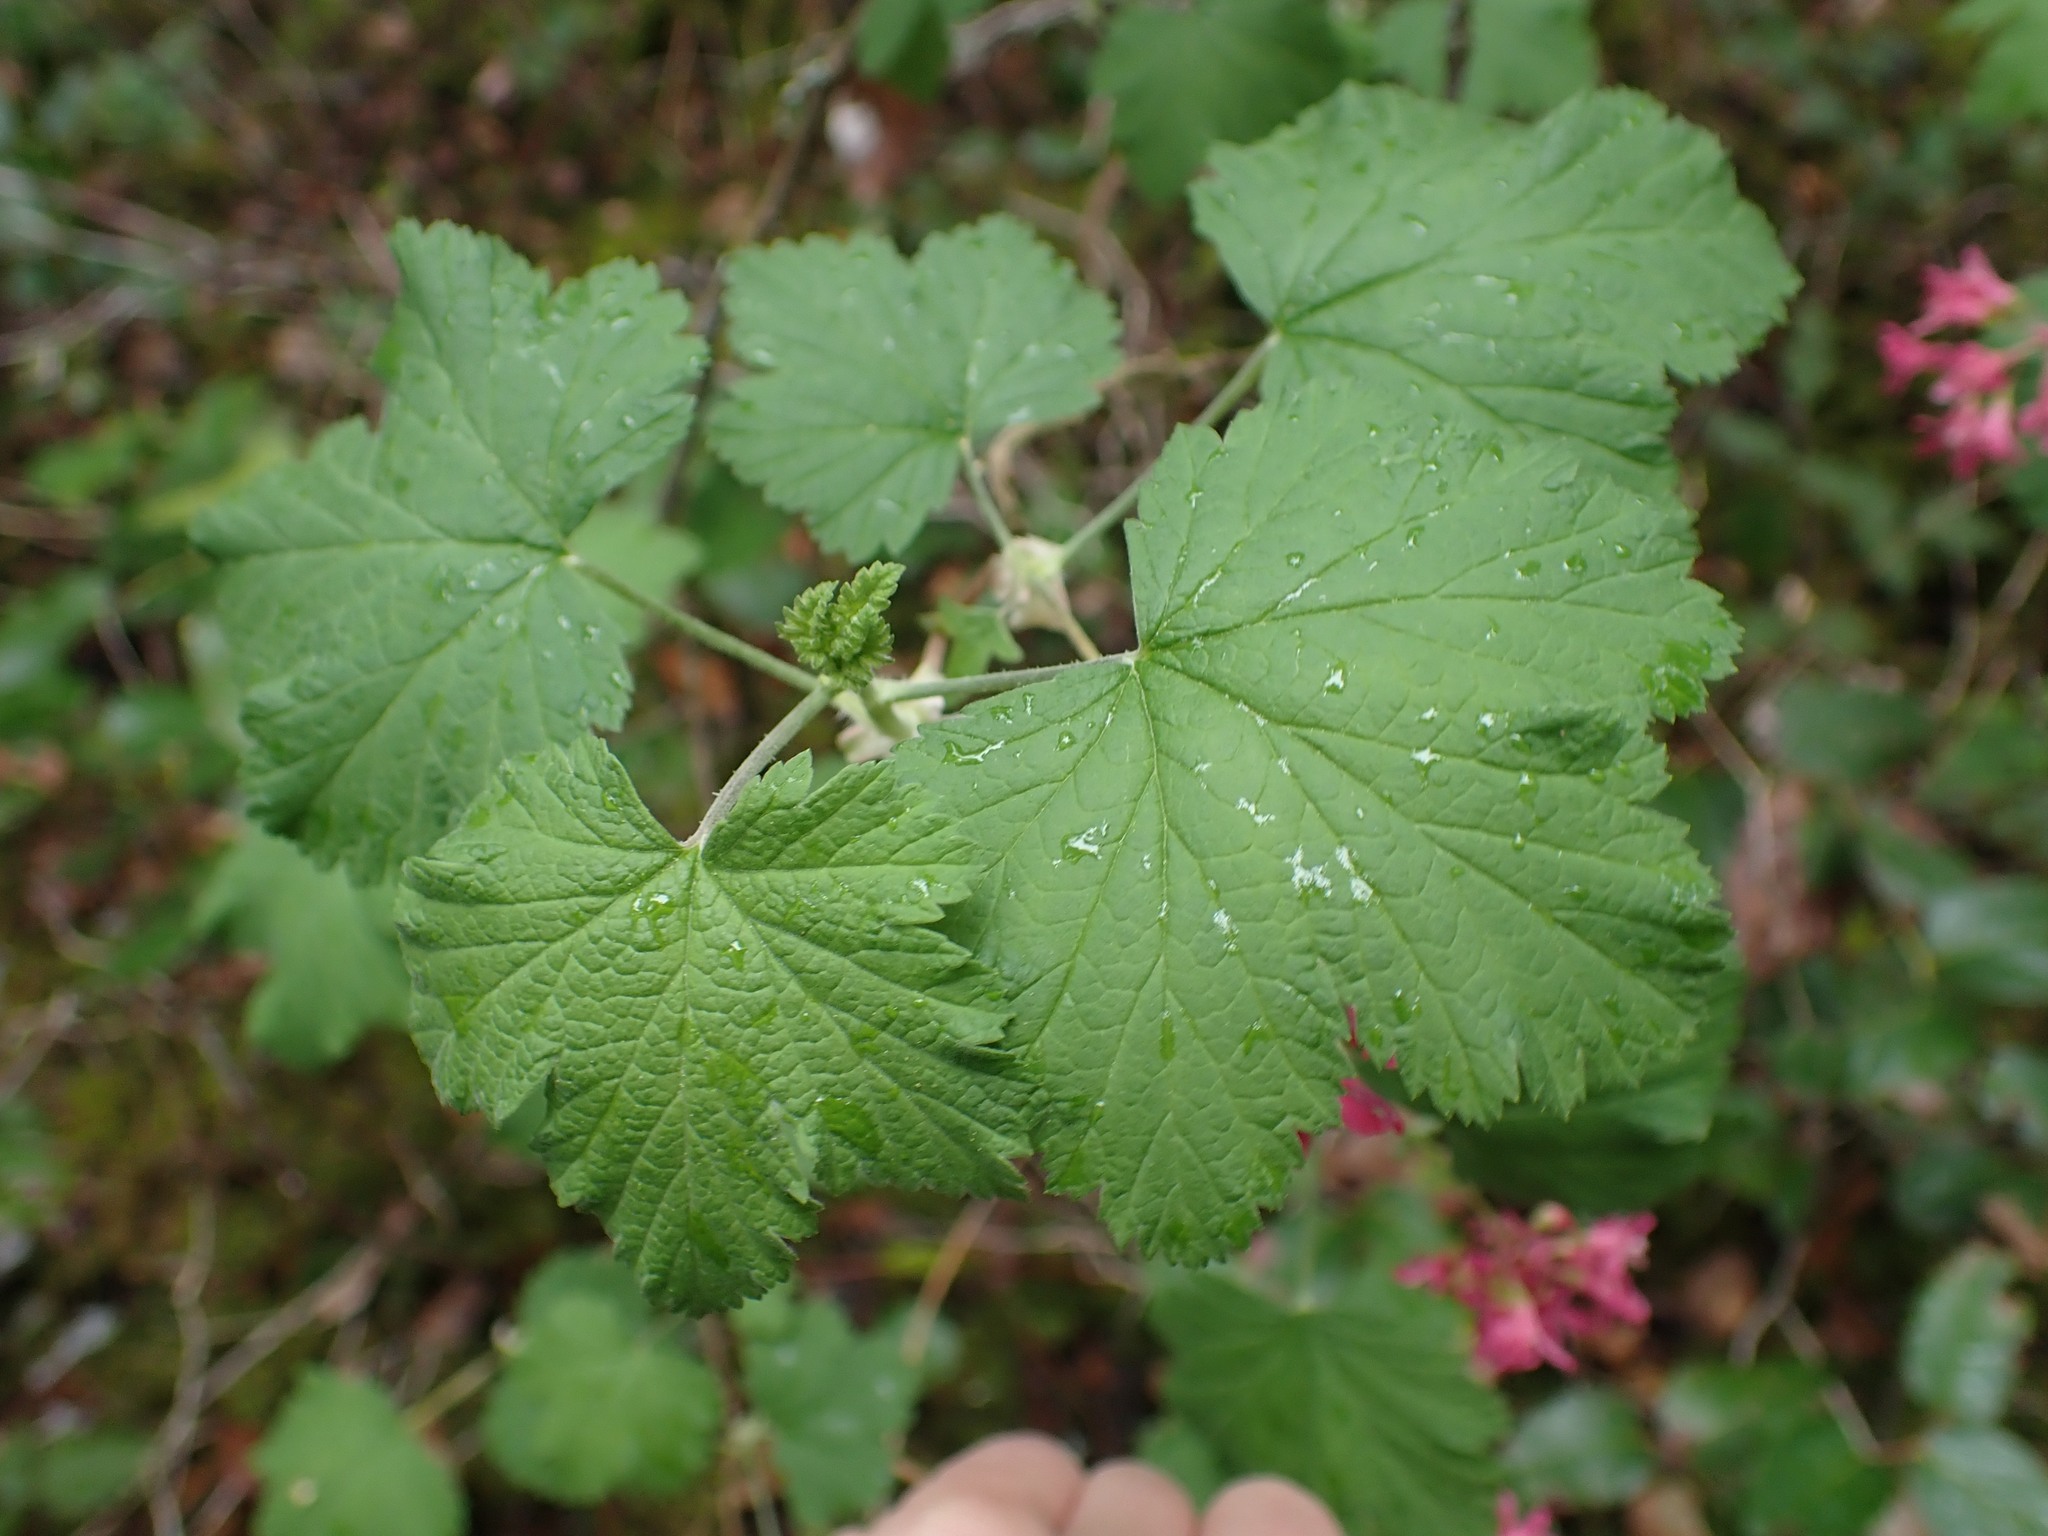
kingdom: Plantae
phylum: Tracheophyta
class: Magnoliopsida
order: Saxifragales
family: Grossulariaceae
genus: Ribes
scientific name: Ribes sanguineum
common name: Flowering currant
